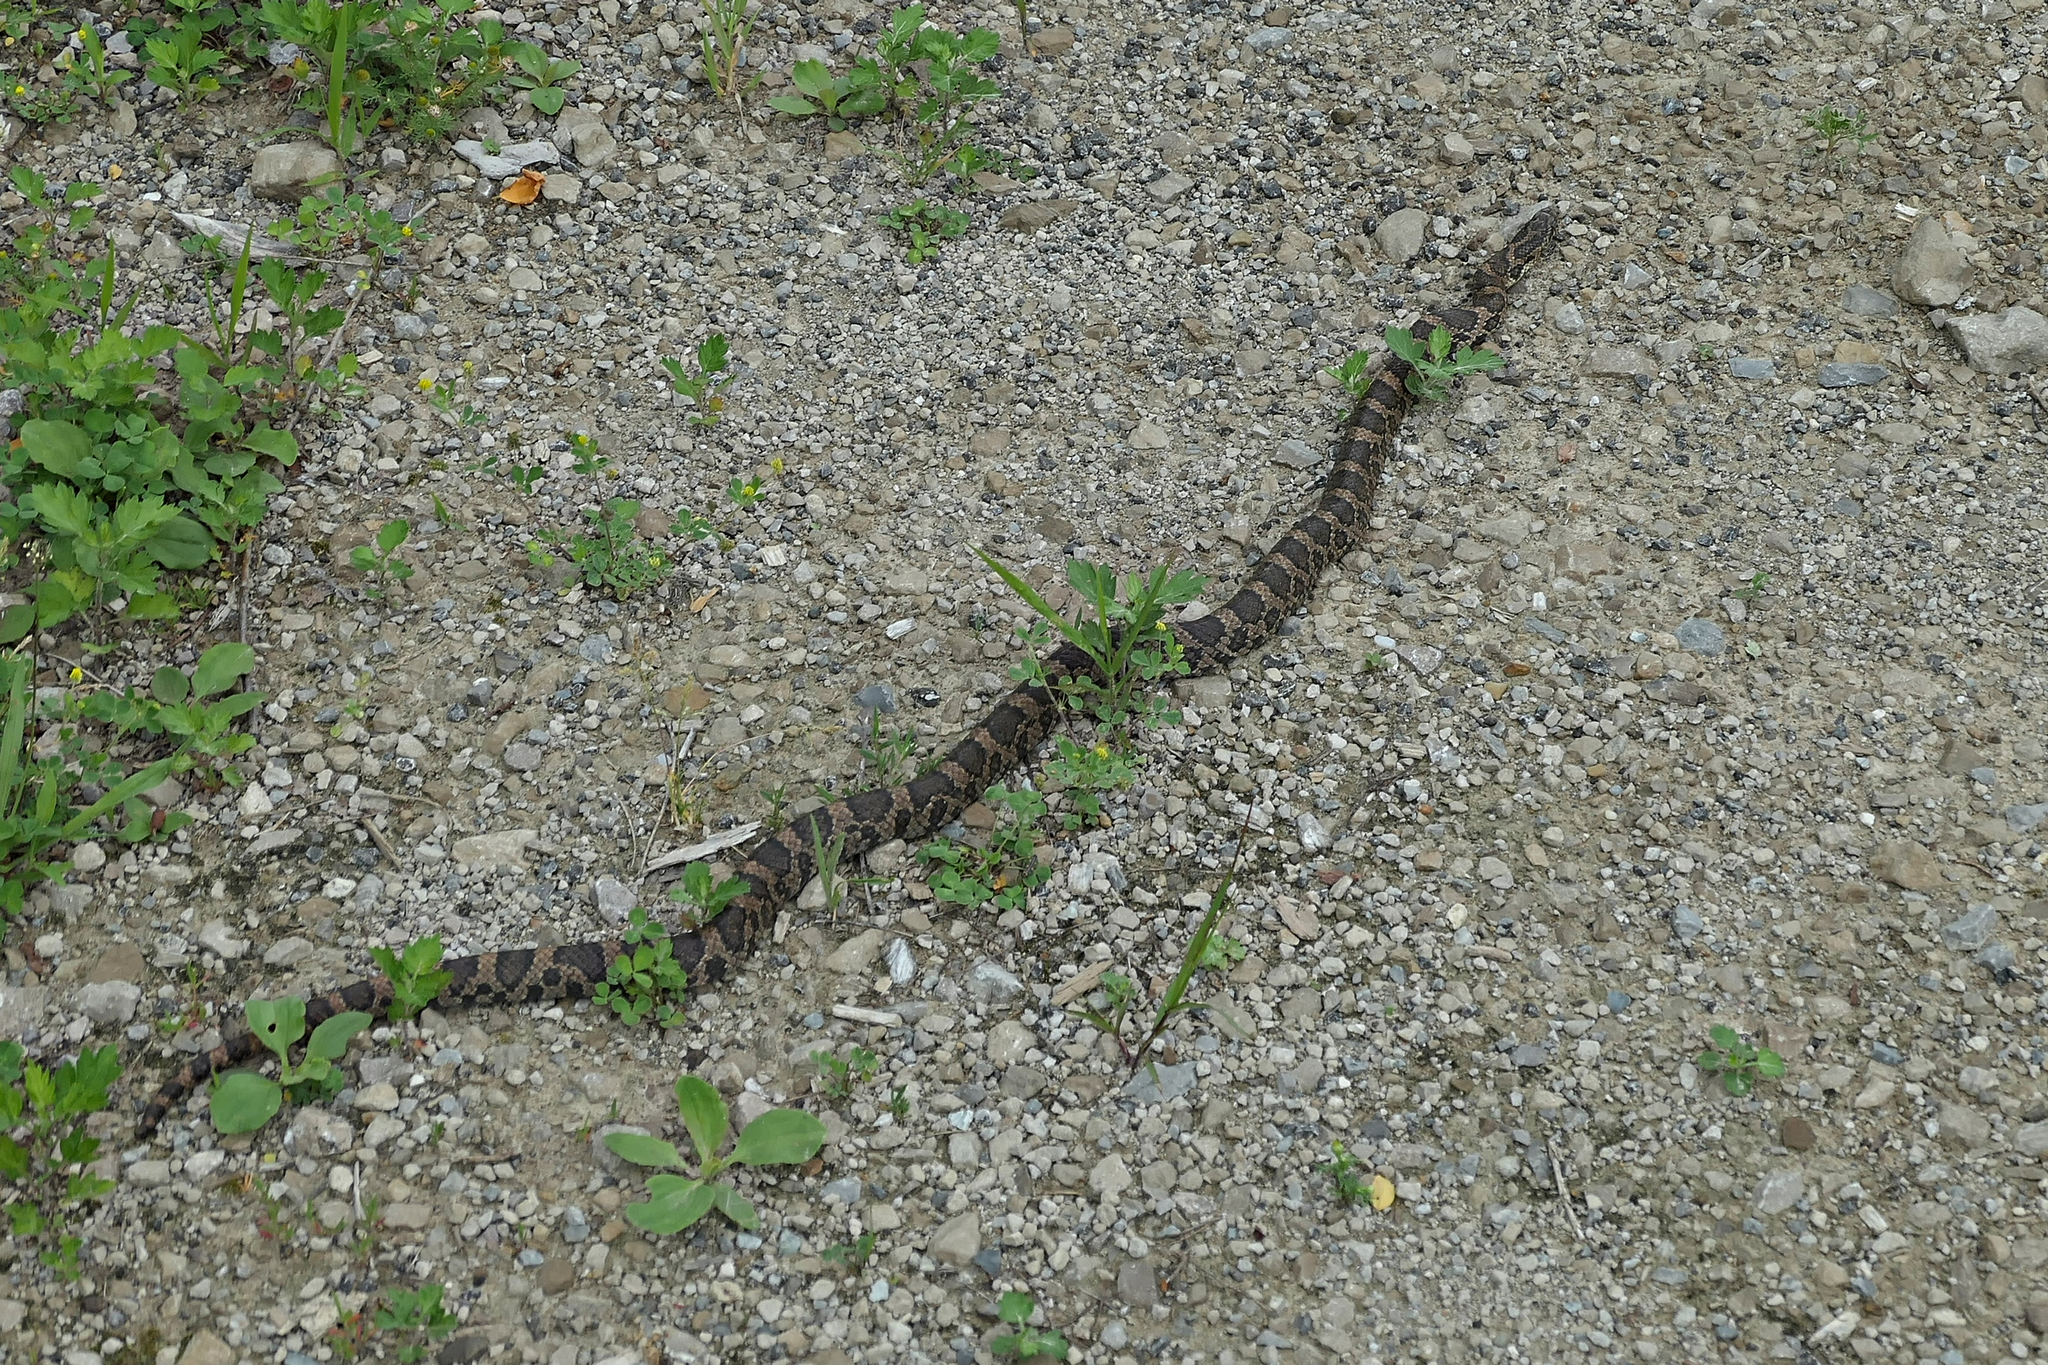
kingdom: Animalia
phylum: Chordata
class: Squamata
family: Colubridae
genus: Lampropeltis
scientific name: Lampropeltis triangulum
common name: Eastern milksnake
